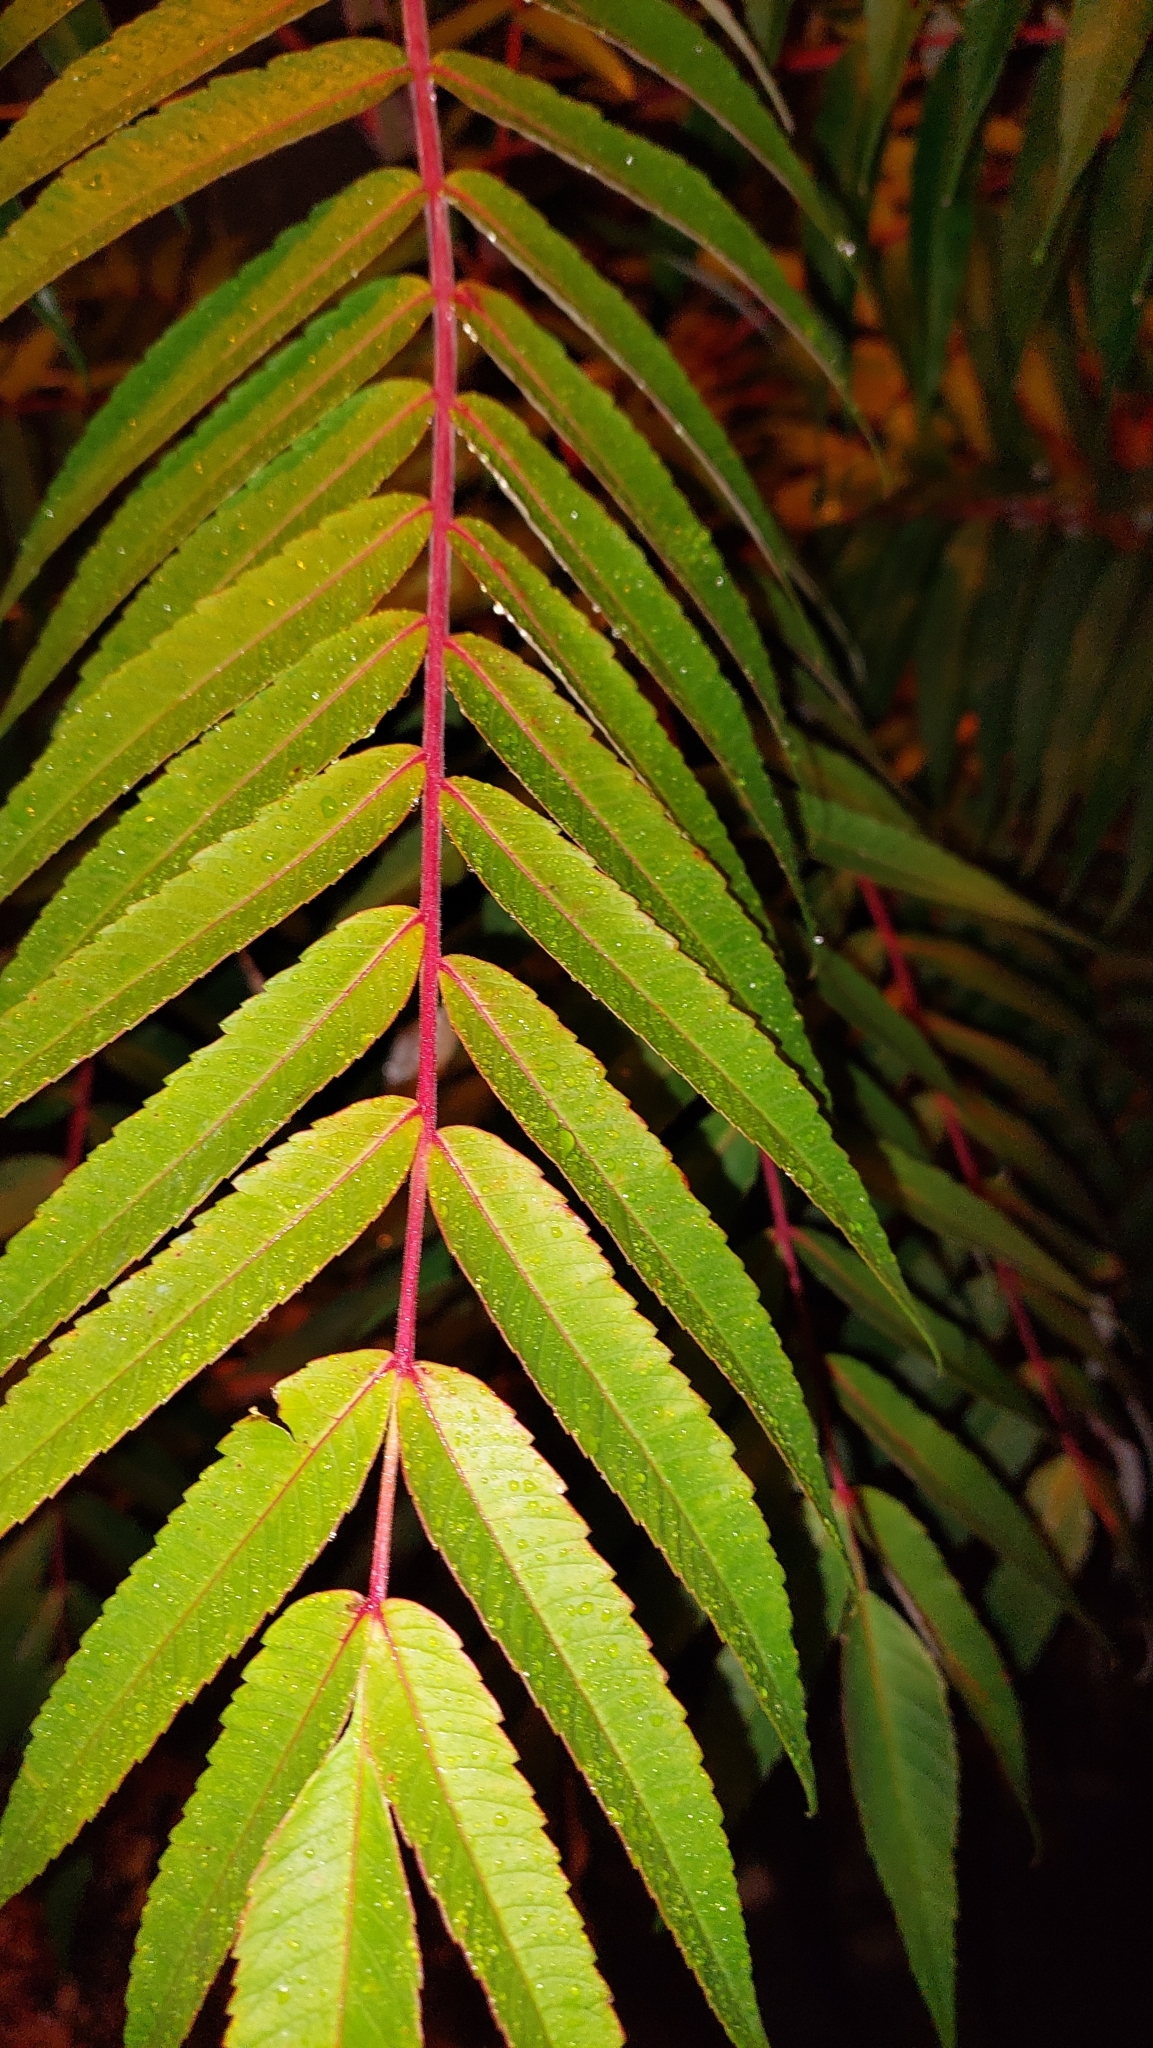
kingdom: Plantae
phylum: Tracheophyta
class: Magnoliopsida
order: Sapindales
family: Anacardiaceae
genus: Rhus
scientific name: Rhus typhina
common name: Staghorn sumac
